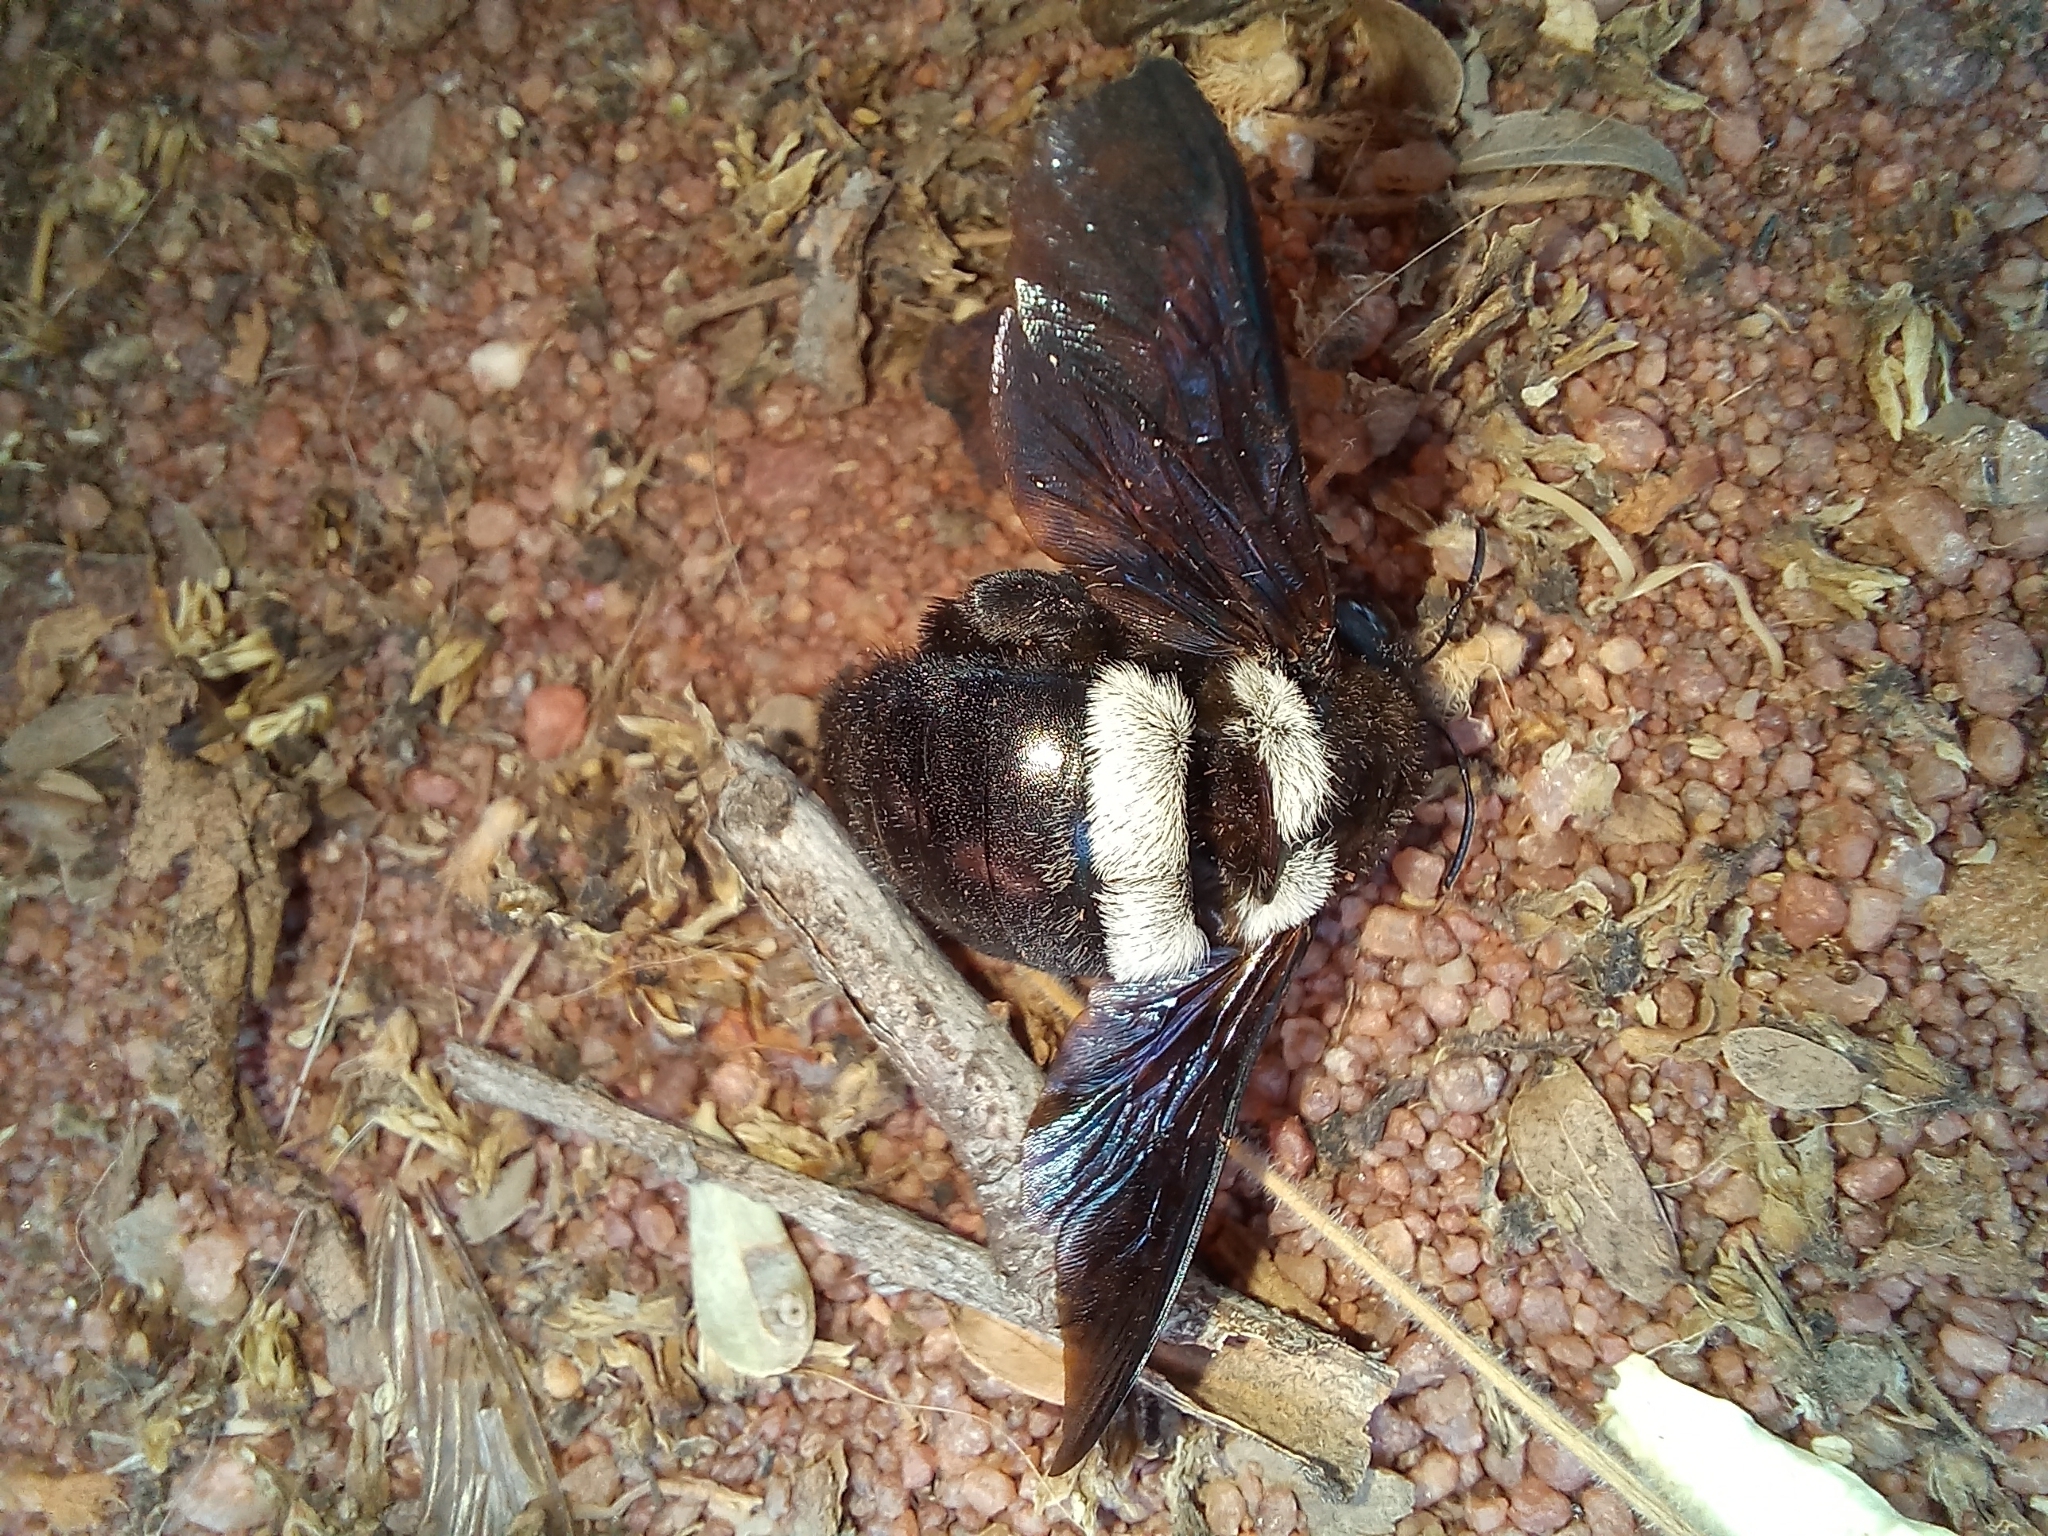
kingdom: Animalia
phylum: Arthropoda
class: Insecta
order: Hymenoptera
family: Apidae
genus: Xylocopa
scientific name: Xylocopa caffra
